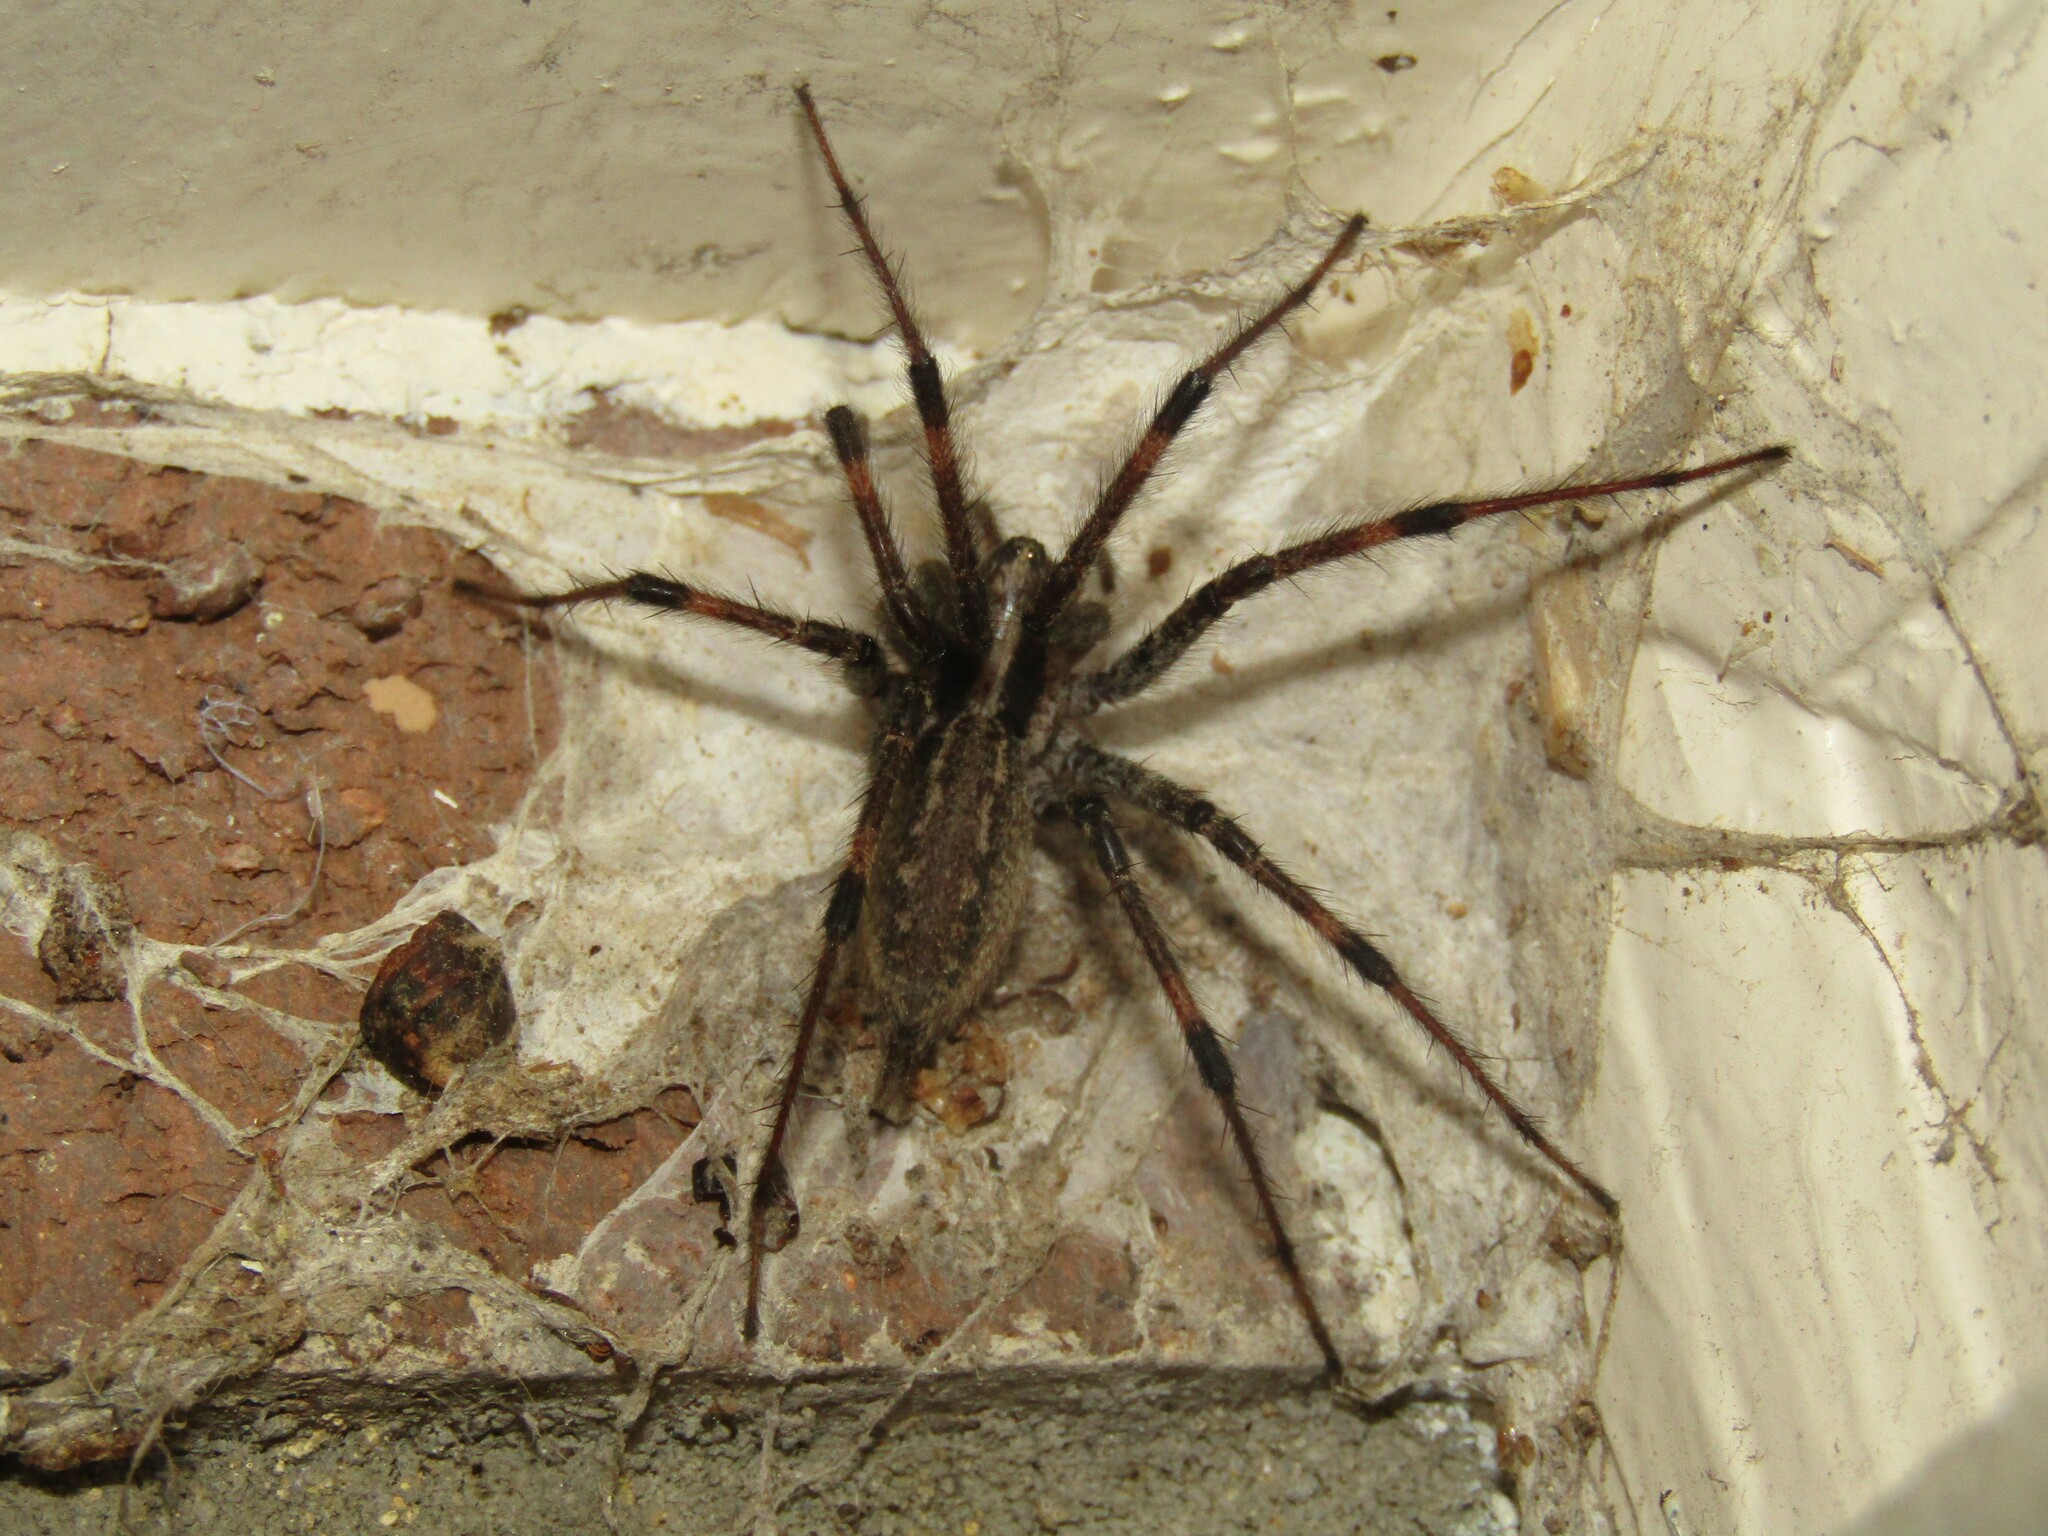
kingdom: Animalia
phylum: Arthropoda
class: Arachnida
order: Araneae
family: Agelenidae
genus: Agelenopsis
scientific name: Agelenopsis
